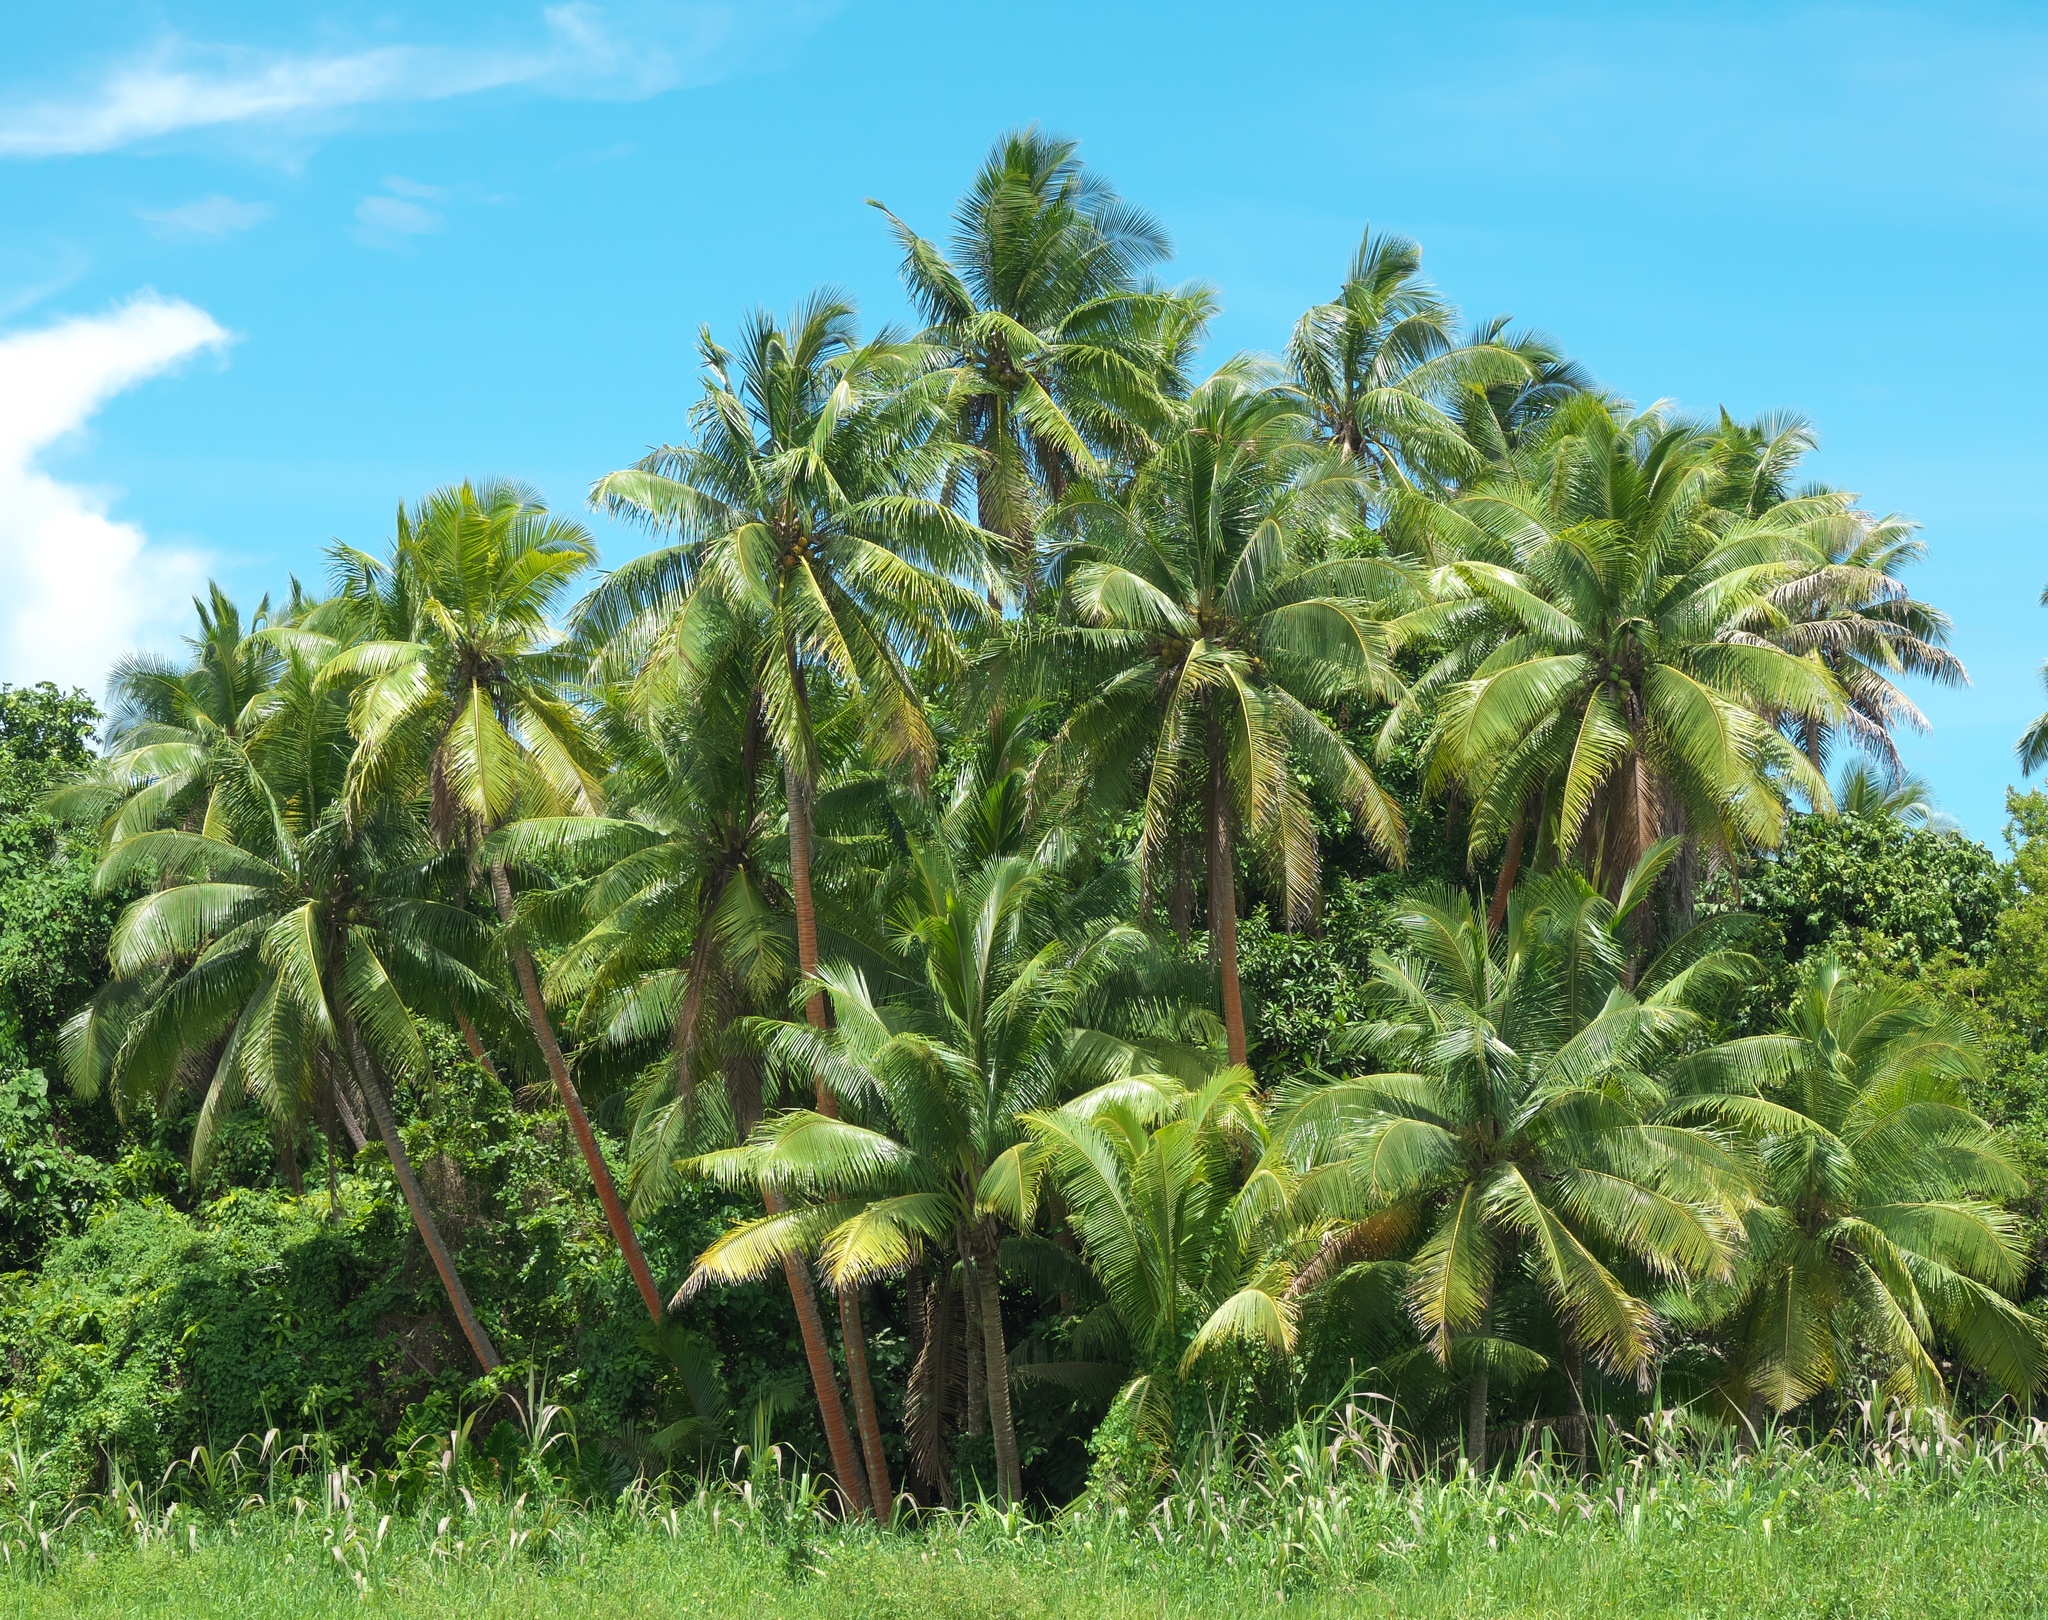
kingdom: Plantae
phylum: Tracheophyta
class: Liliopsida
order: Arecales
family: Arecaceae
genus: Cocos
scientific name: Cocos nucifera
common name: Coconut palm
